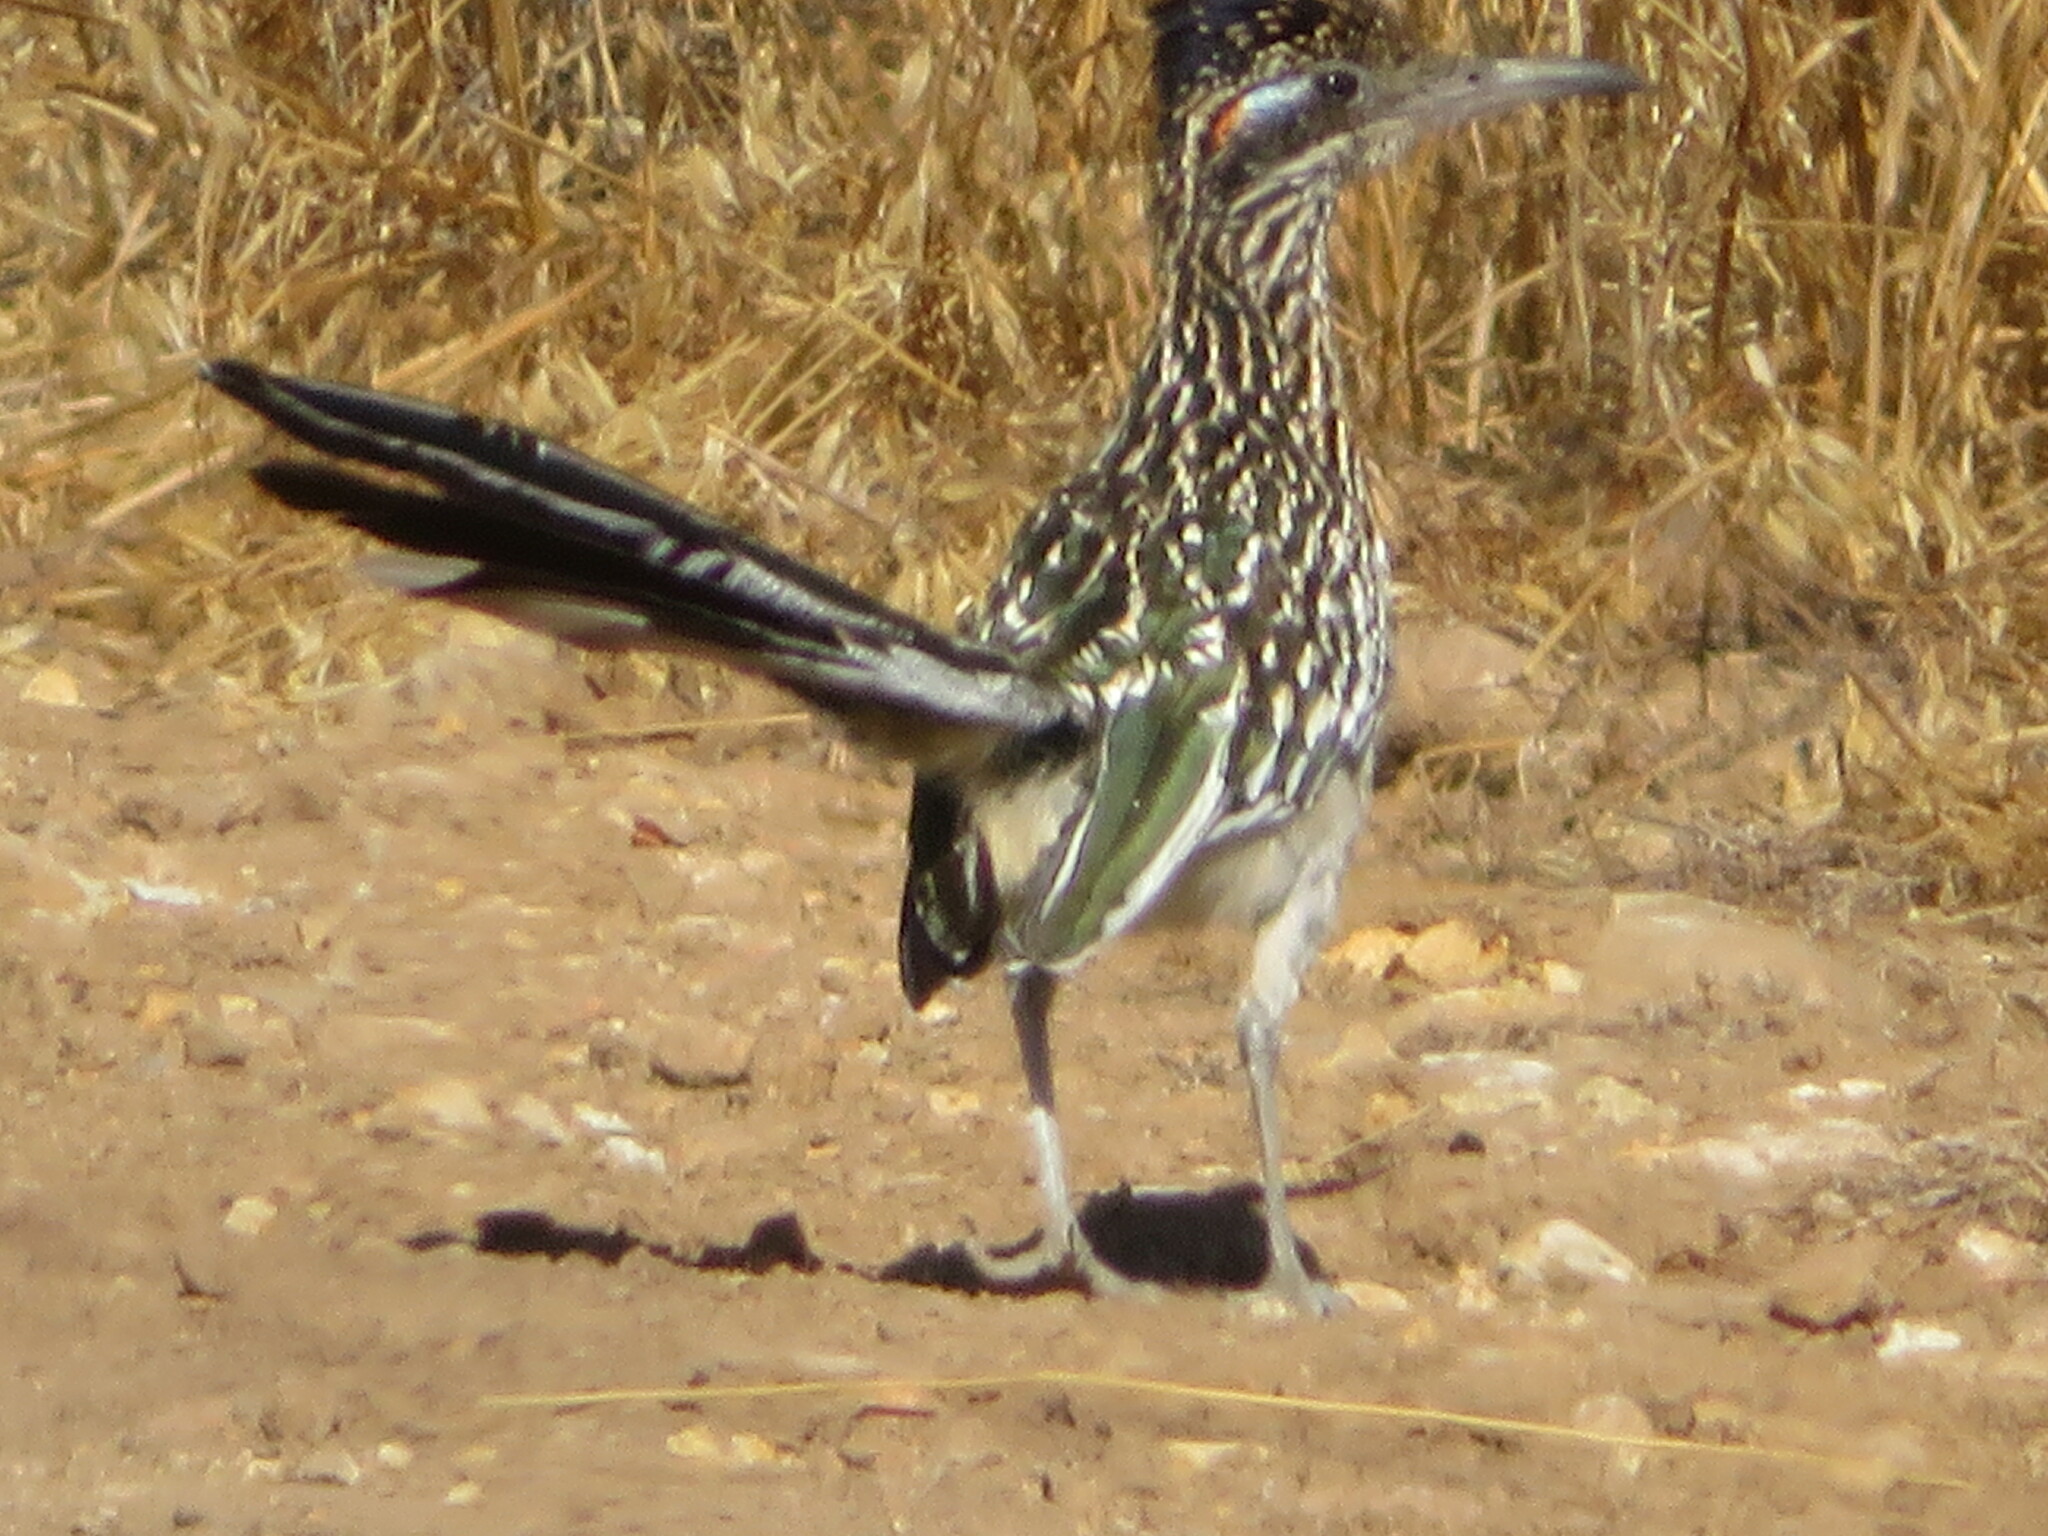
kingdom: Animalia
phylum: Chordata
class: Aves
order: Cuculiformes
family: Cuculidae
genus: Geococcyx
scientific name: Geococcyx californianus
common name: Greater roadrunner
